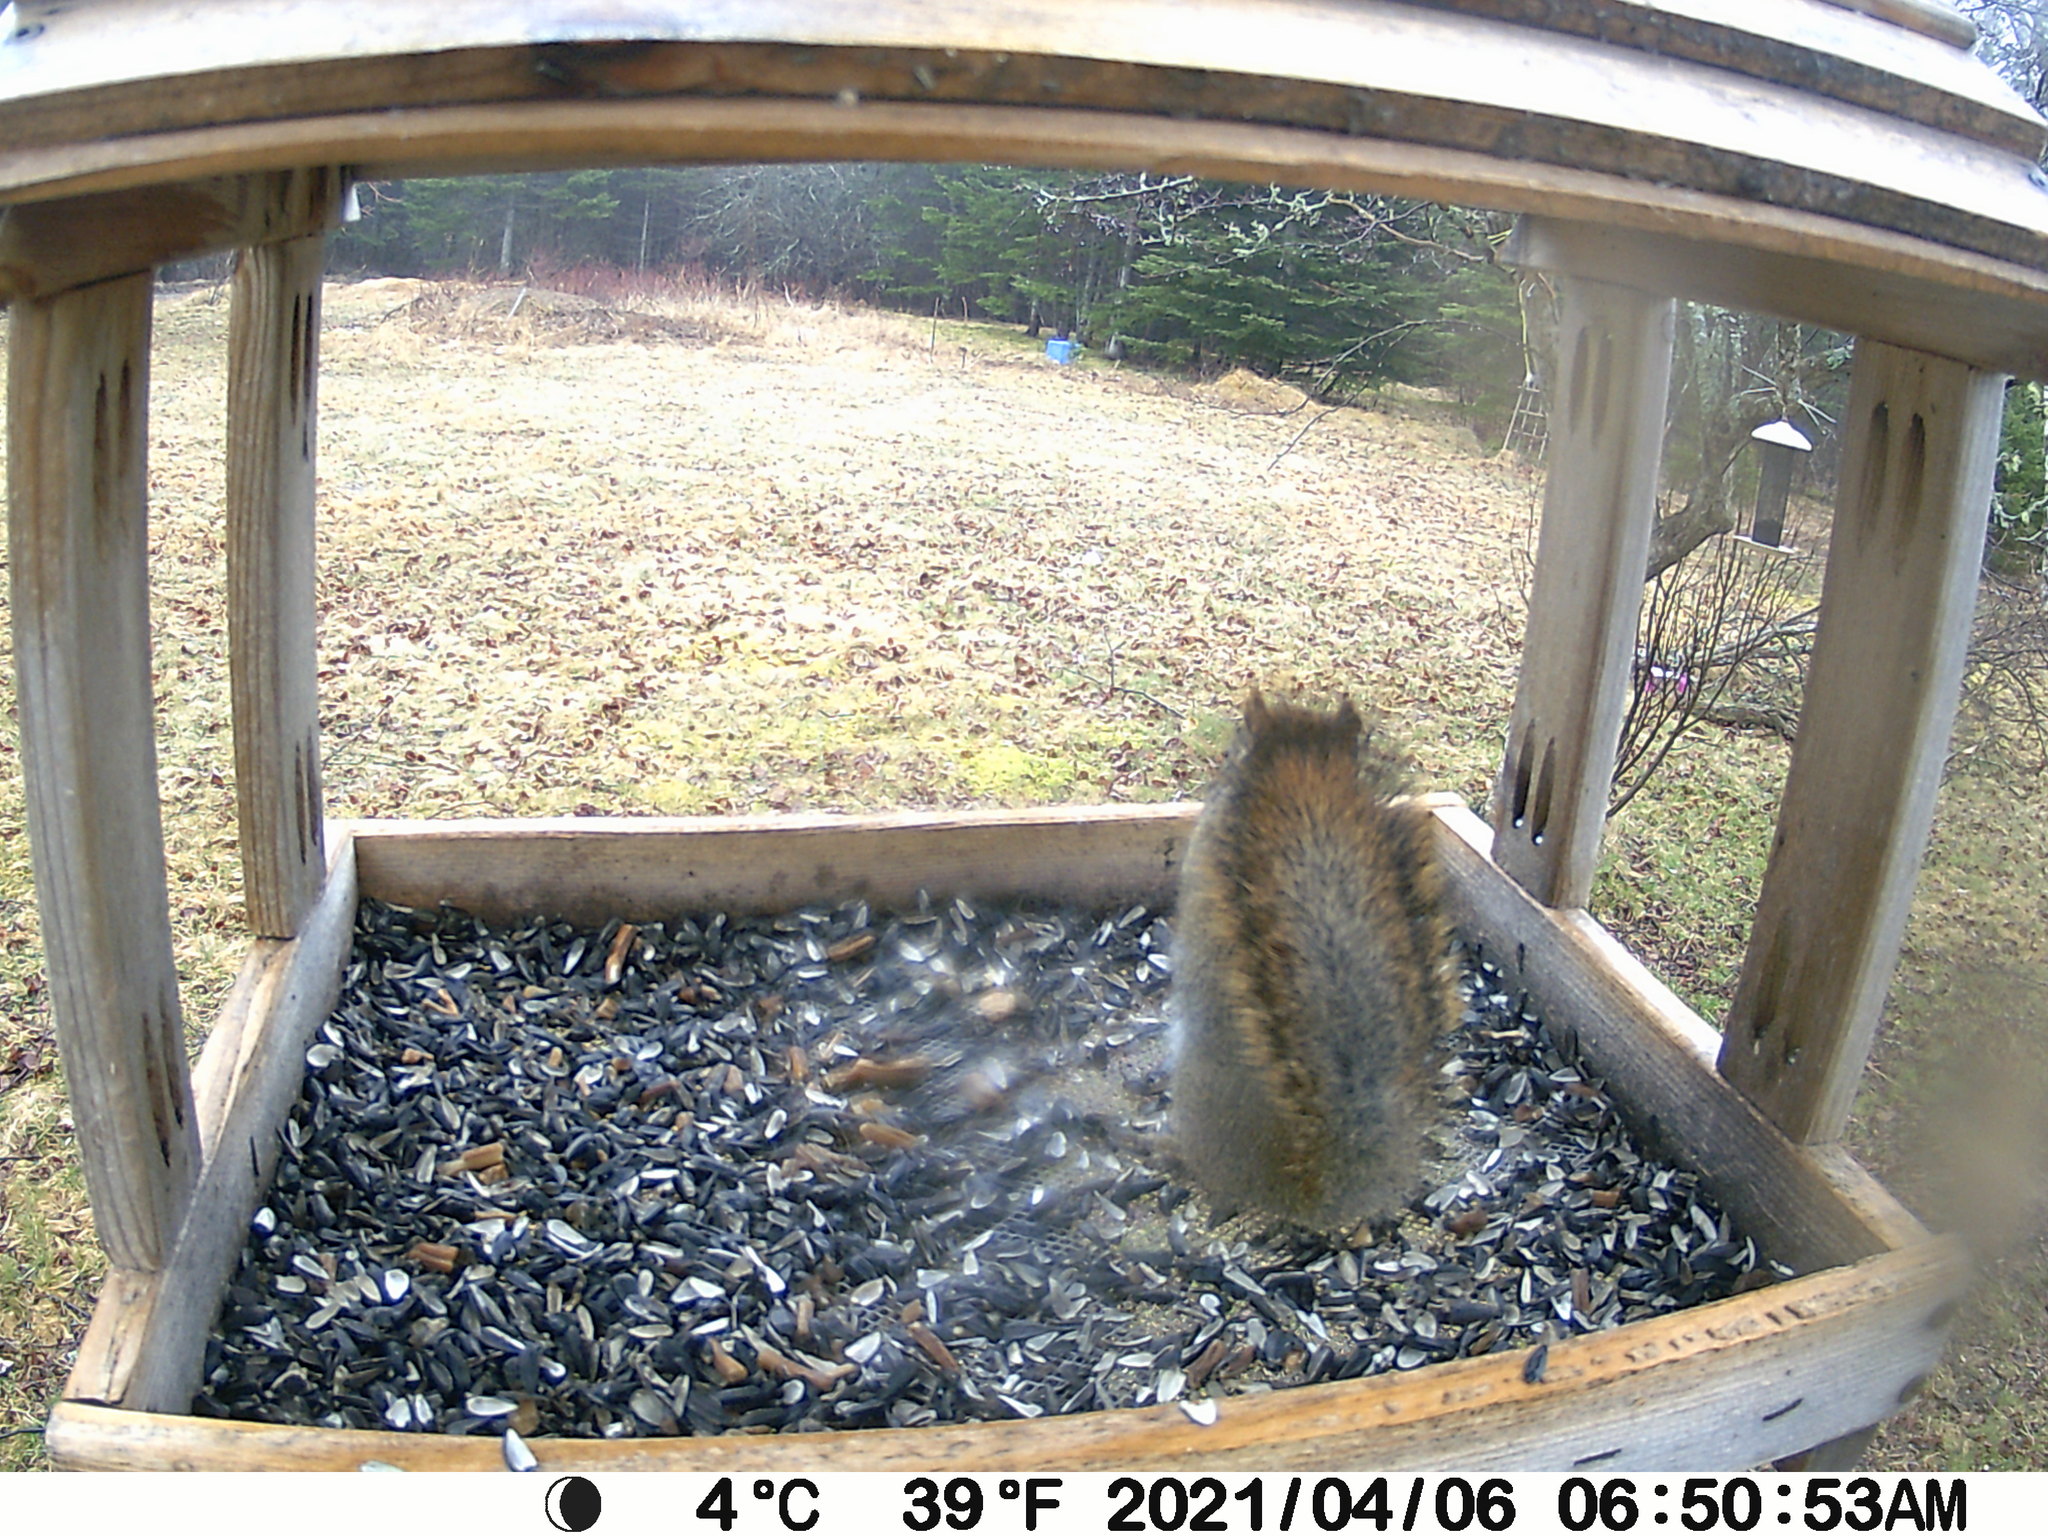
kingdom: Animalia
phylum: Chordata
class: Mammalia
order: Rodentia
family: Sciuridae
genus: Tamiasciurus
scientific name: Tamiasciurus hudsonicus
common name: Red squirrel
